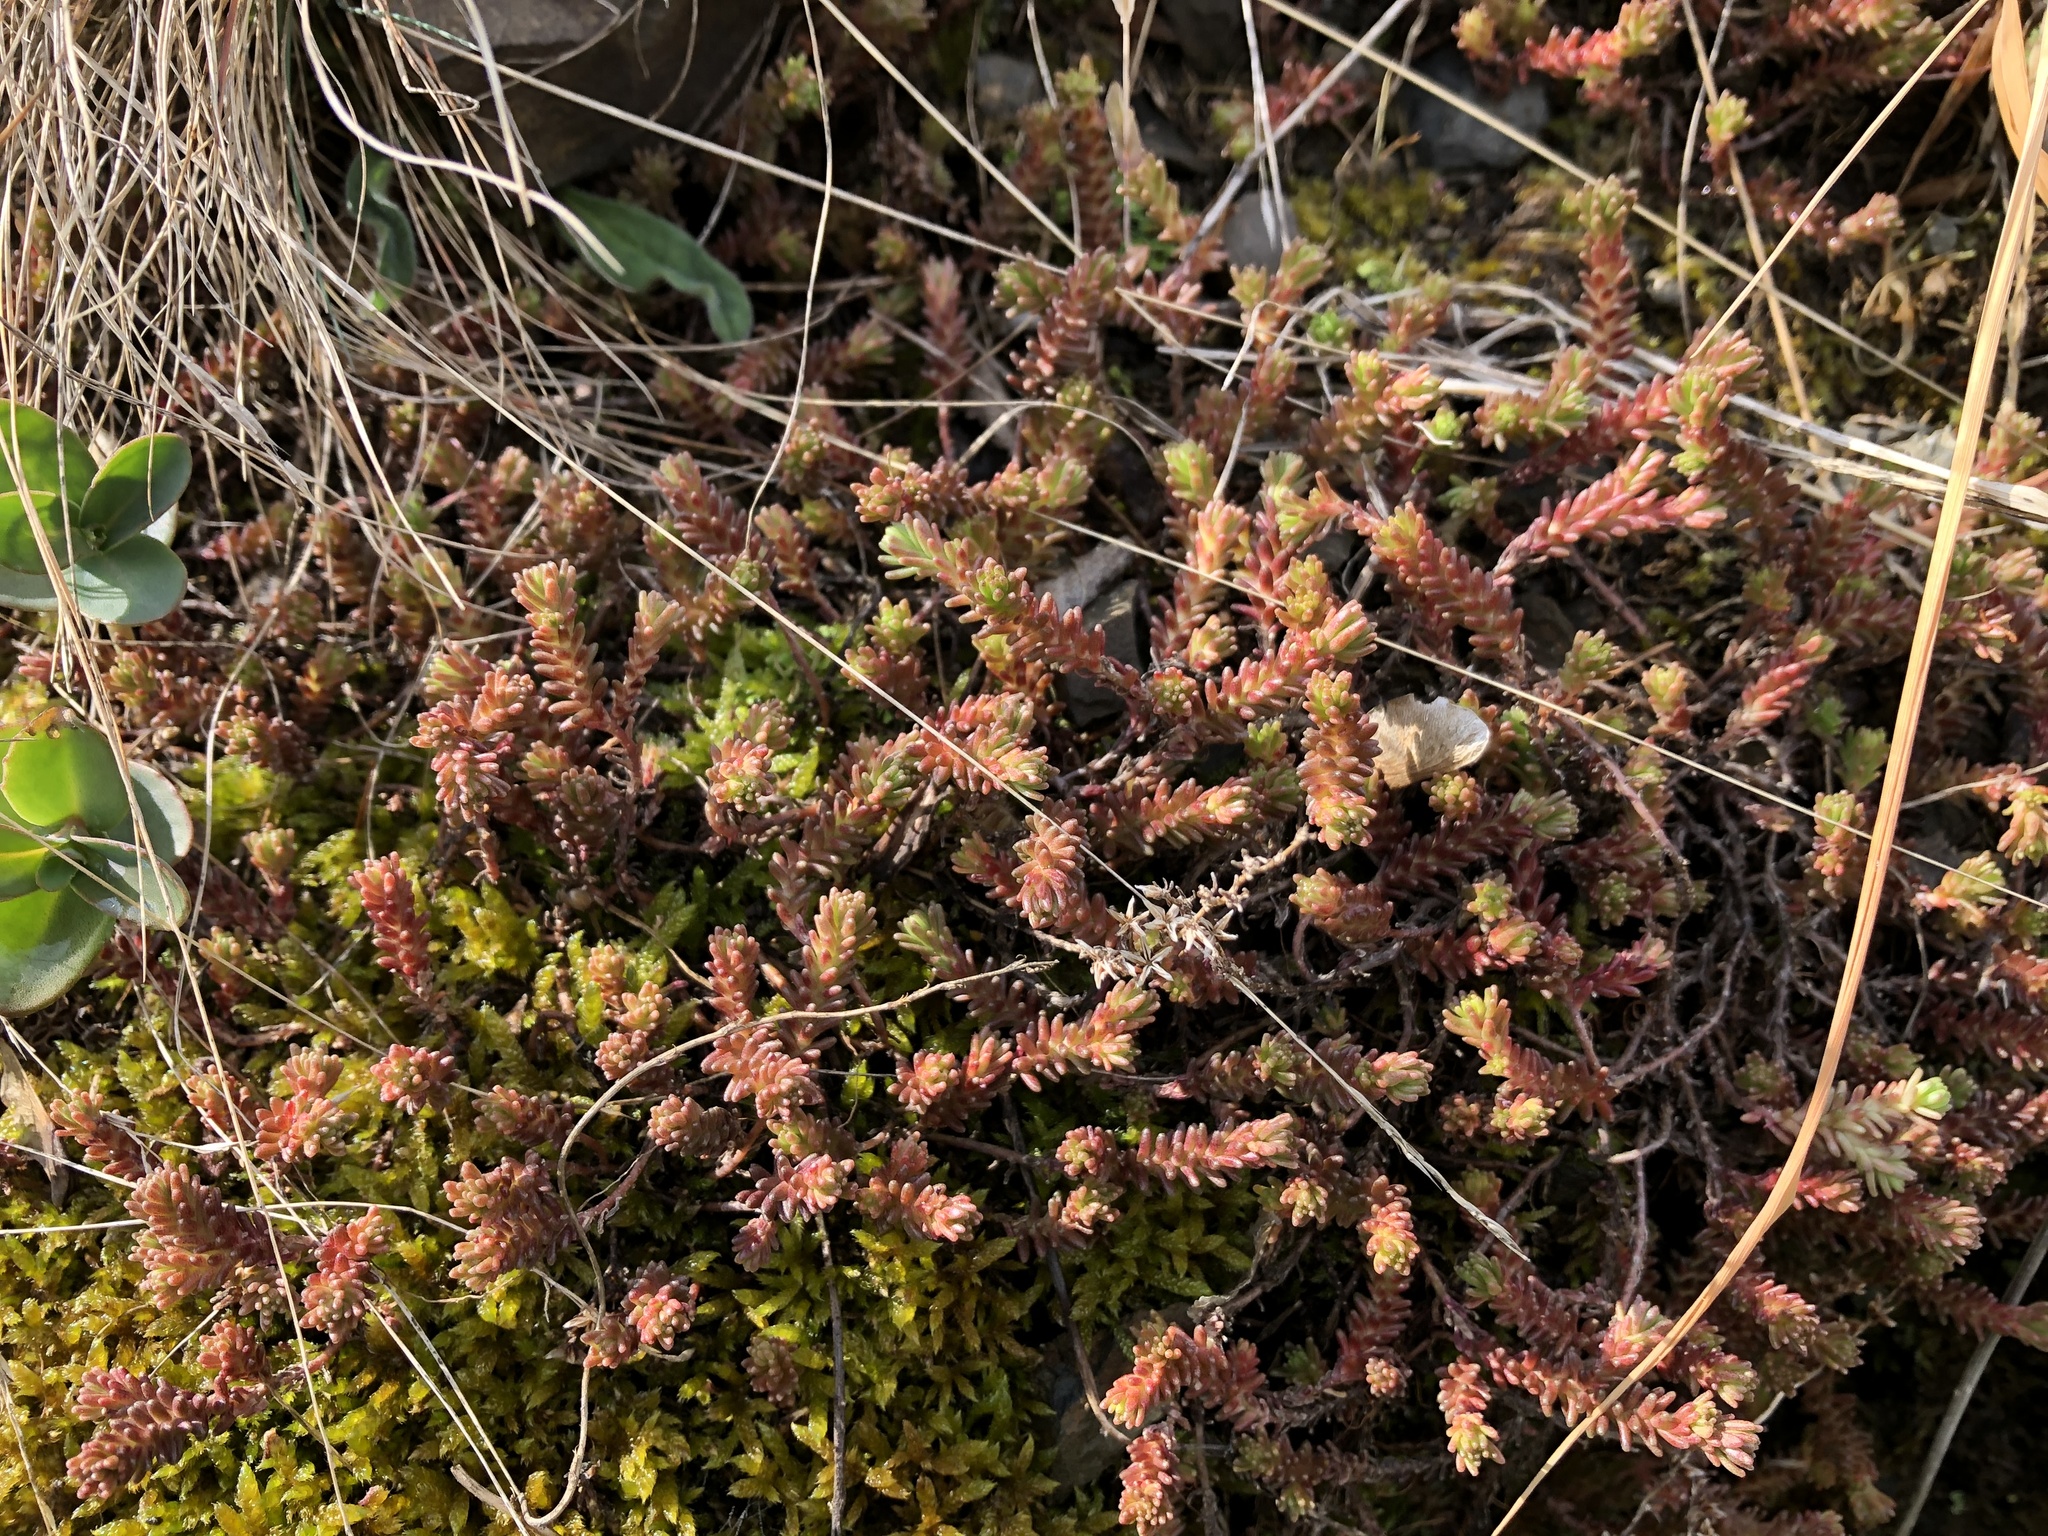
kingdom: Plantae
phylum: Tracheophyta
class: Magnoliopsida
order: Saxifragales
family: Crassulaceae
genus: Sedum
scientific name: Sedum sexangulare
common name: Tasteless stonecrop
